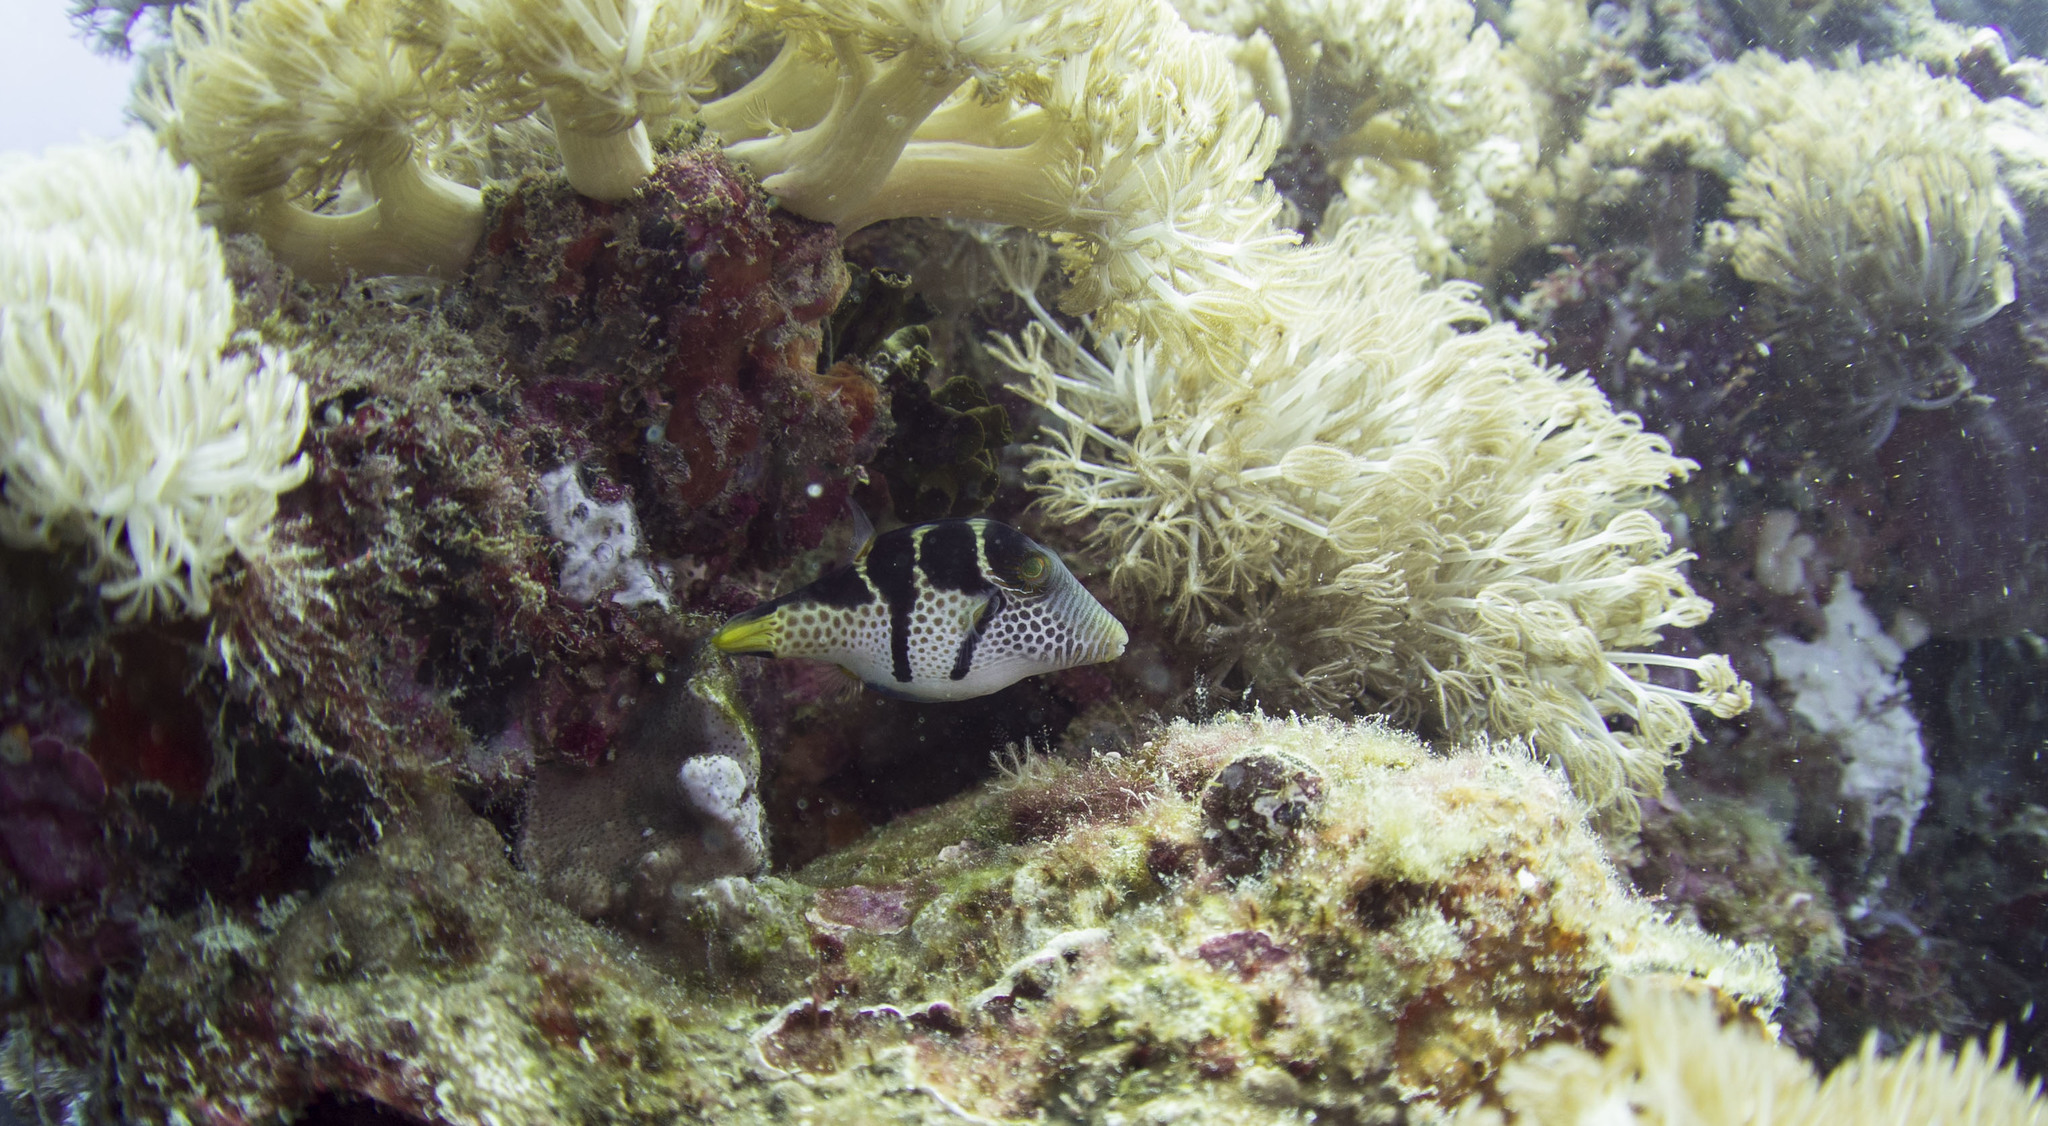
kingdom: Animalia
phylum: Chordata
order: Tetraodontiformes
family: Tetraodontidae
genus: Canthigaster
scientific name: Canthigaster valentini
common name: Banded toby
